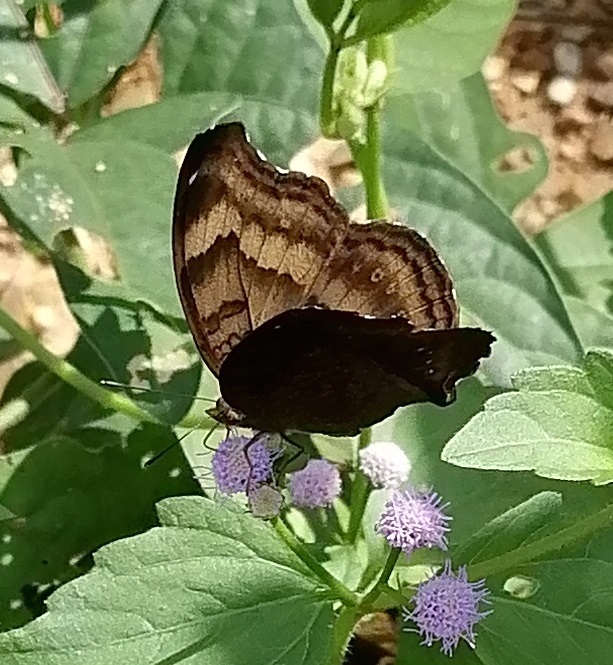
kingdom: Animalia
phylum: Arthropoda
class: Insecta
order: Lepidoptera
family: Nymphalidae
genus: Junonia
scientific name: Junonia iphita
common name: Chocolate pansy
